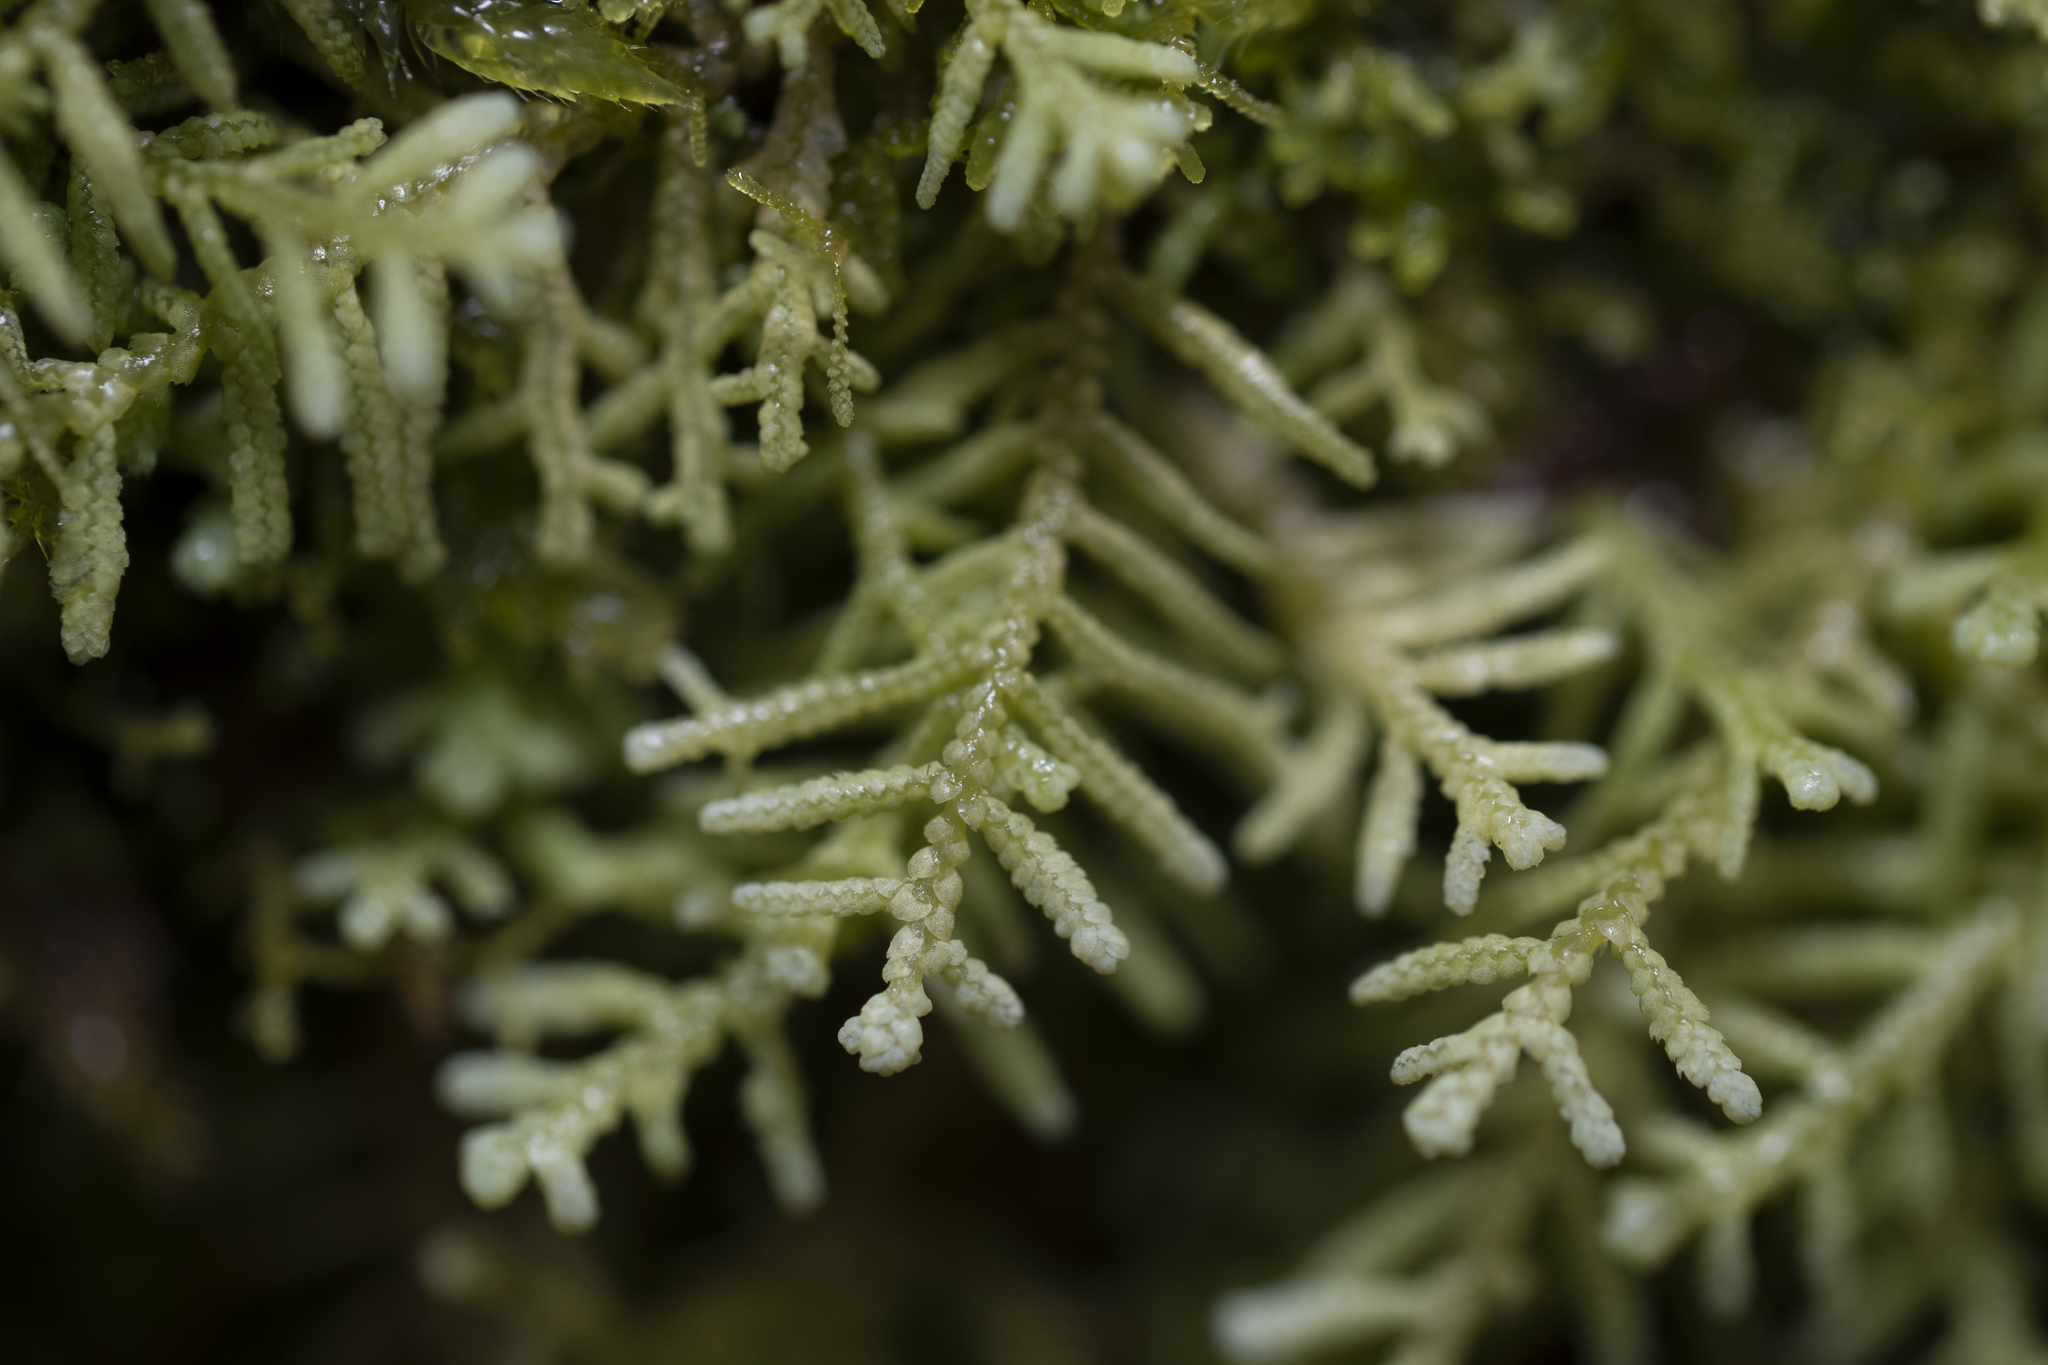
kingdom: Plantae
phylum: Marchantiophyta
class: Jungermanniopsida
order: Jungermanniales
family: Mastigophoraceae
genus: Dendromastigophora
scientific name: Dendromastigophora flagellifera
